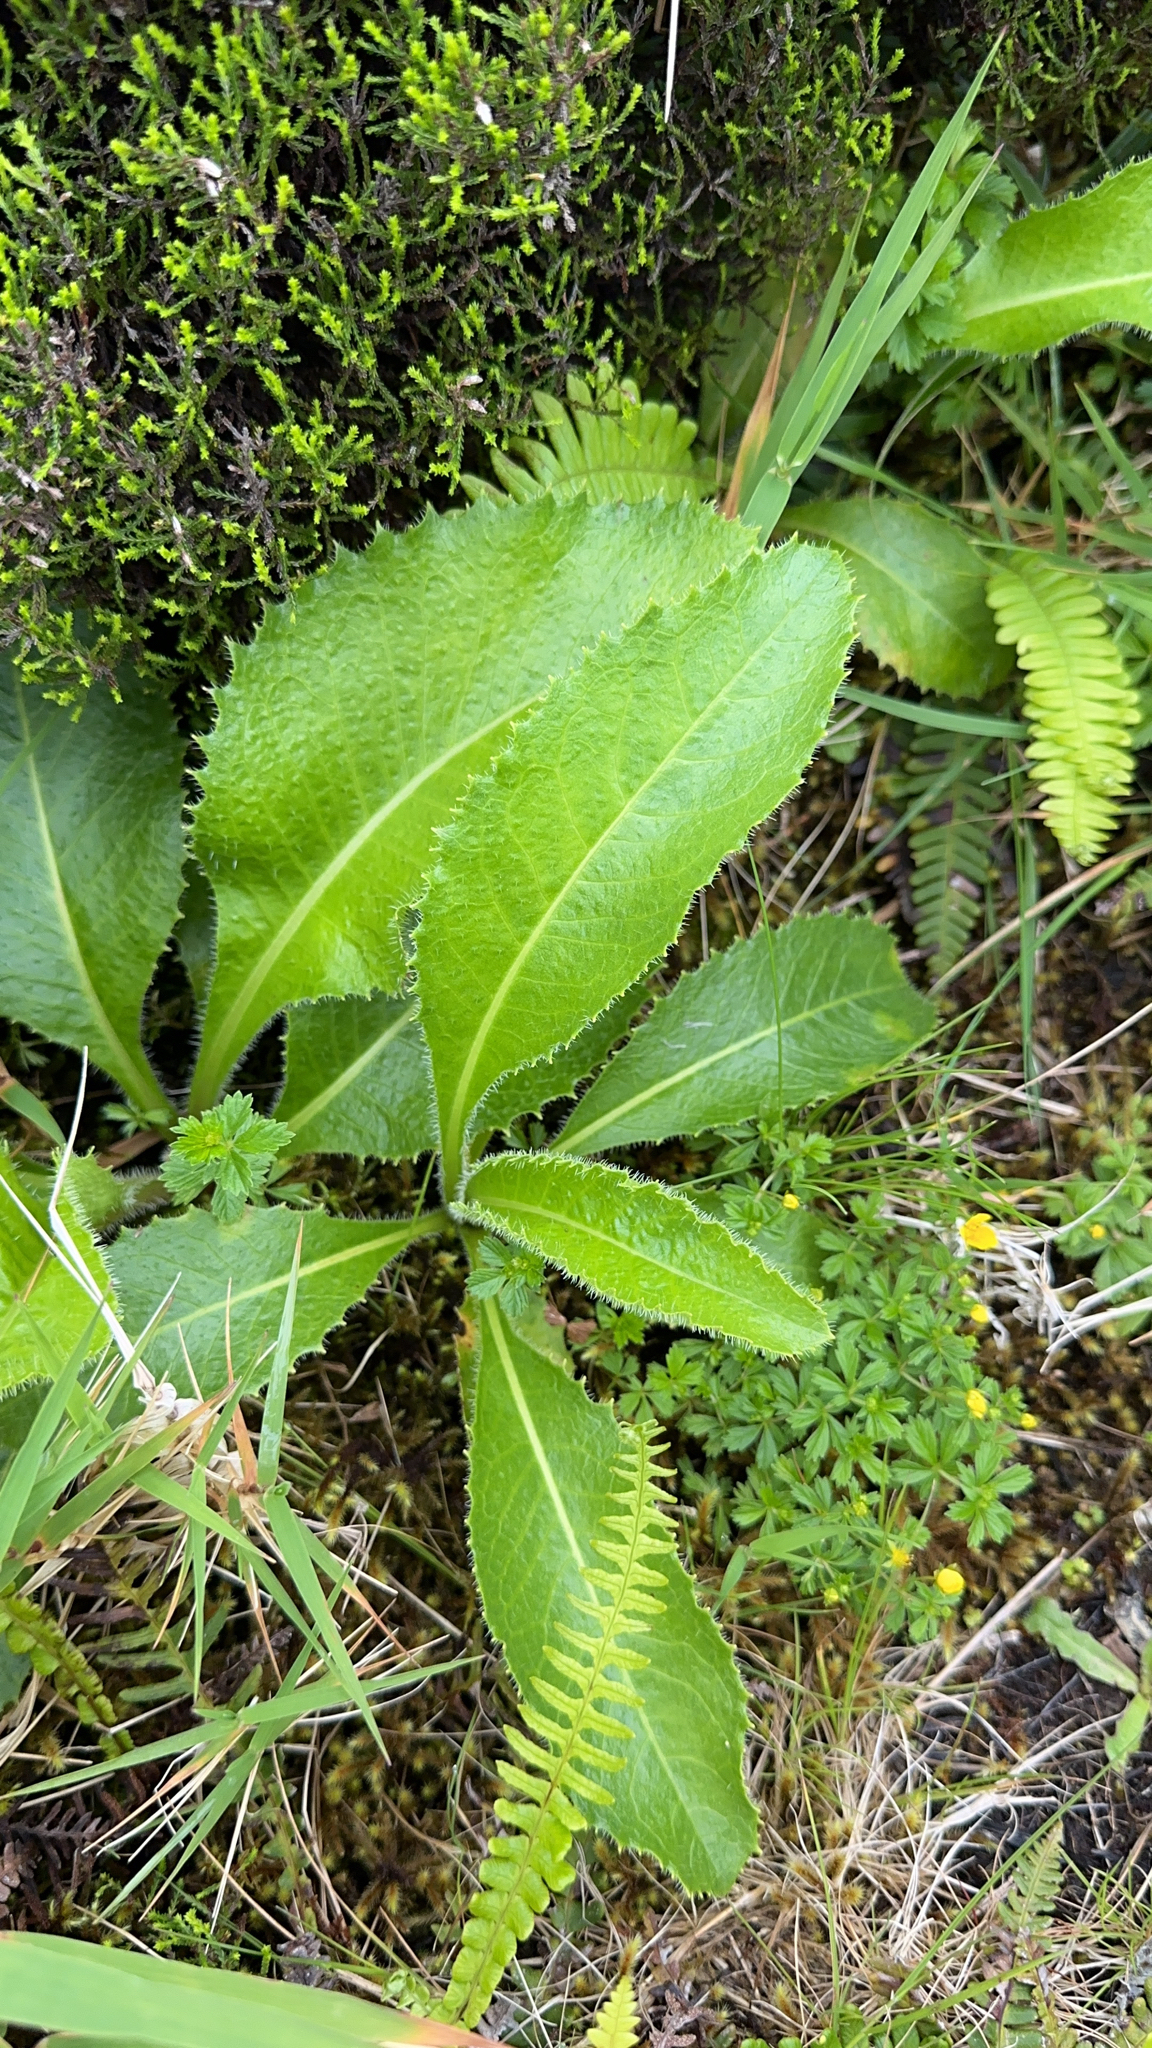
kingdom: Plantae
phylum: Tracheophyta
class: Magnoliopsida
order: Asterales
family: Asteraceae
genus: Leontodon
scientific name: Leontodon rigens
